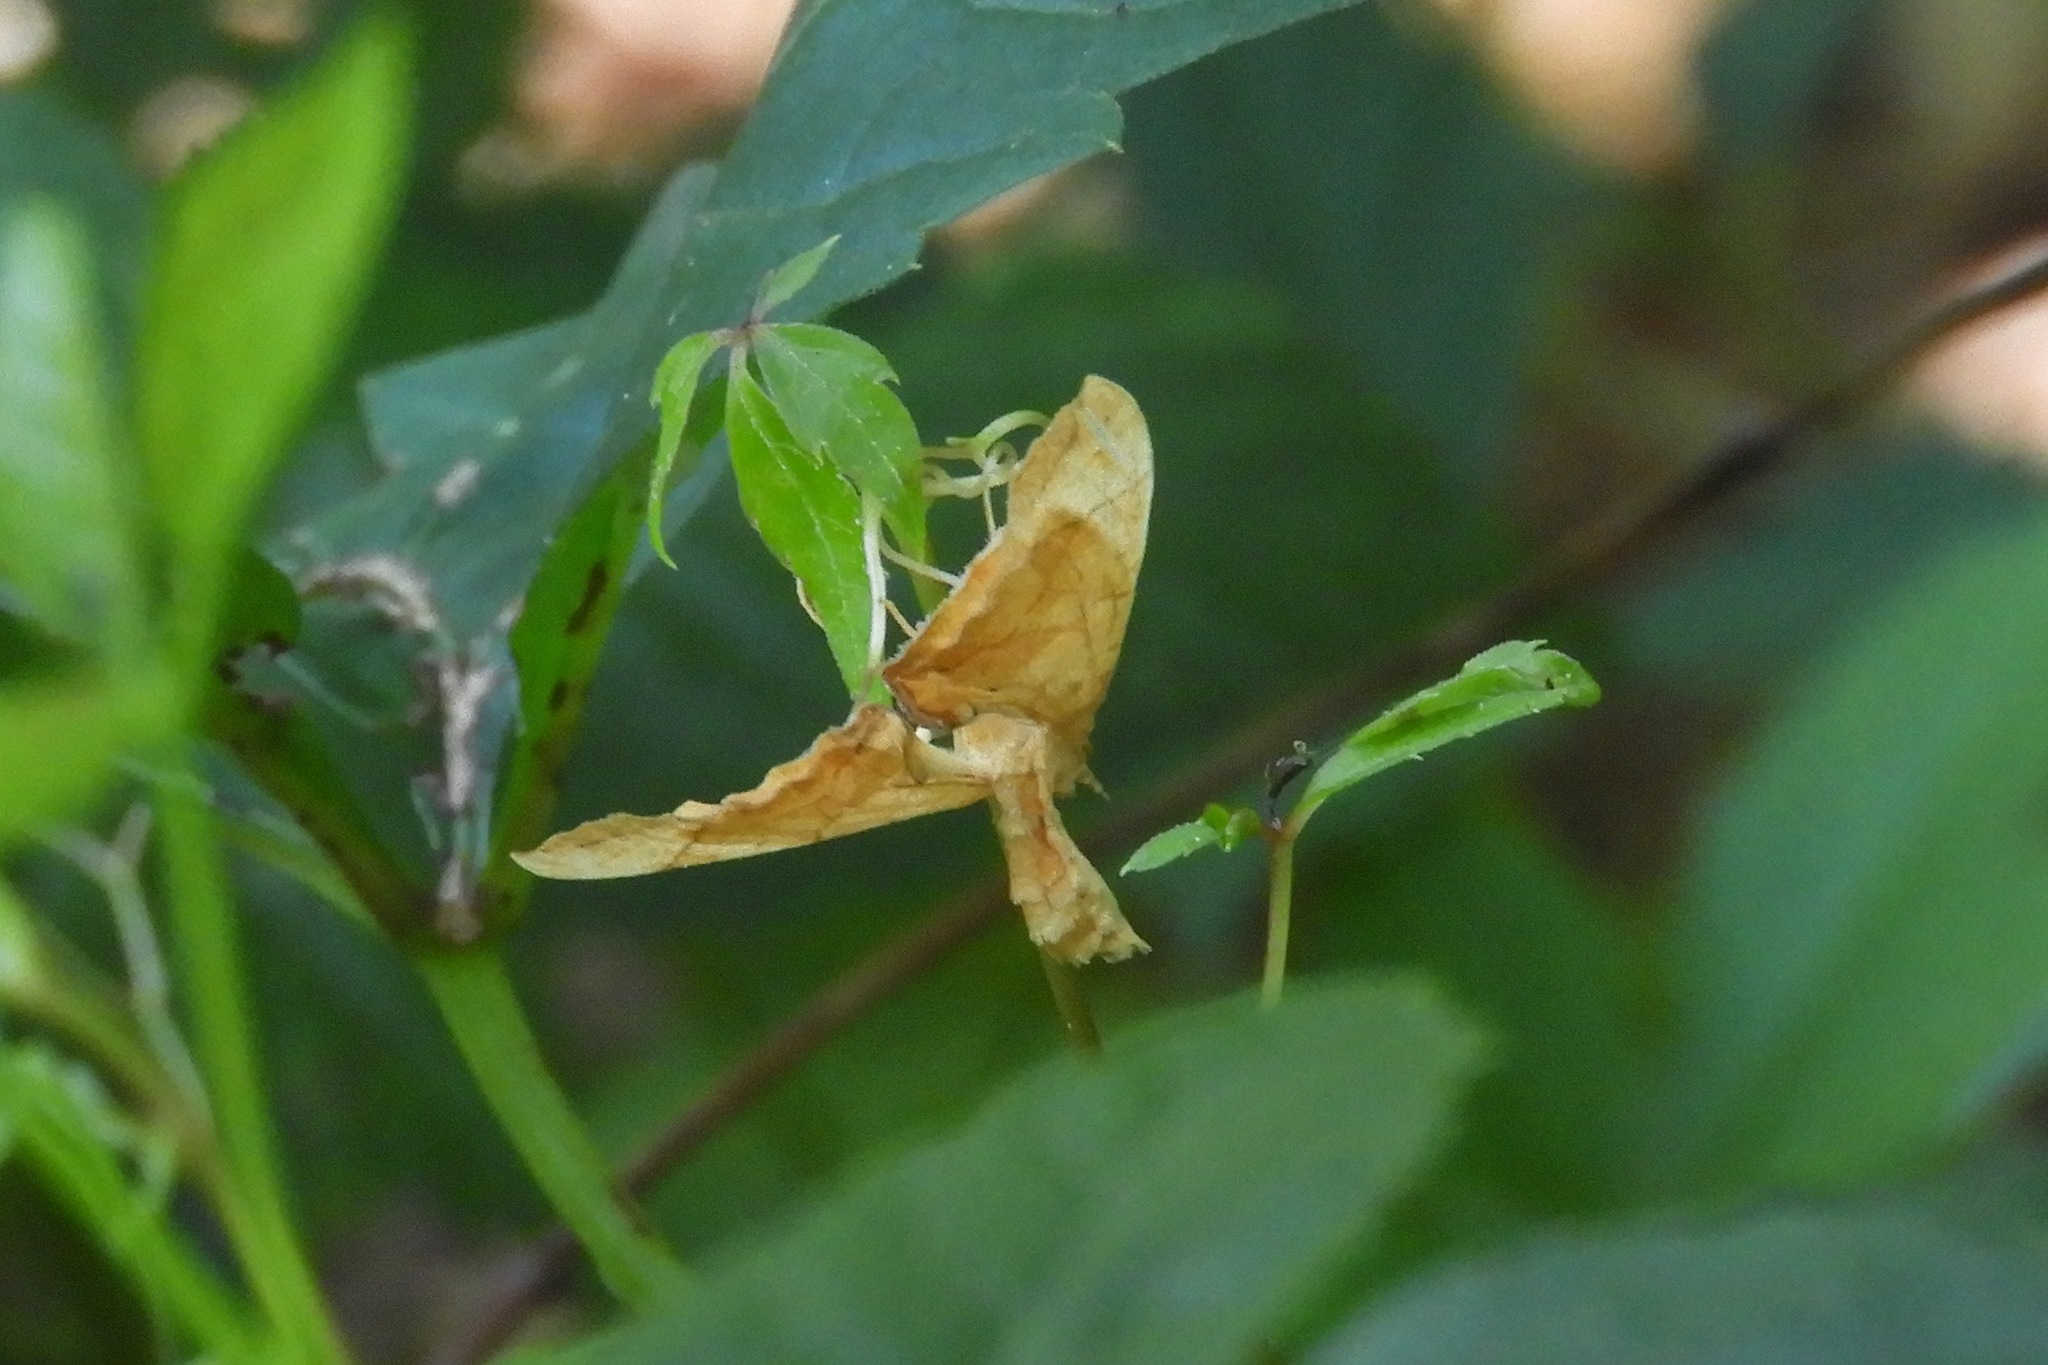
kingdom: Animalia
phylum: Arthropoda
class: Insecta
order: Lepidoptera
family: Geometridae
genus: Eulithis
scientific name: Eulithis
